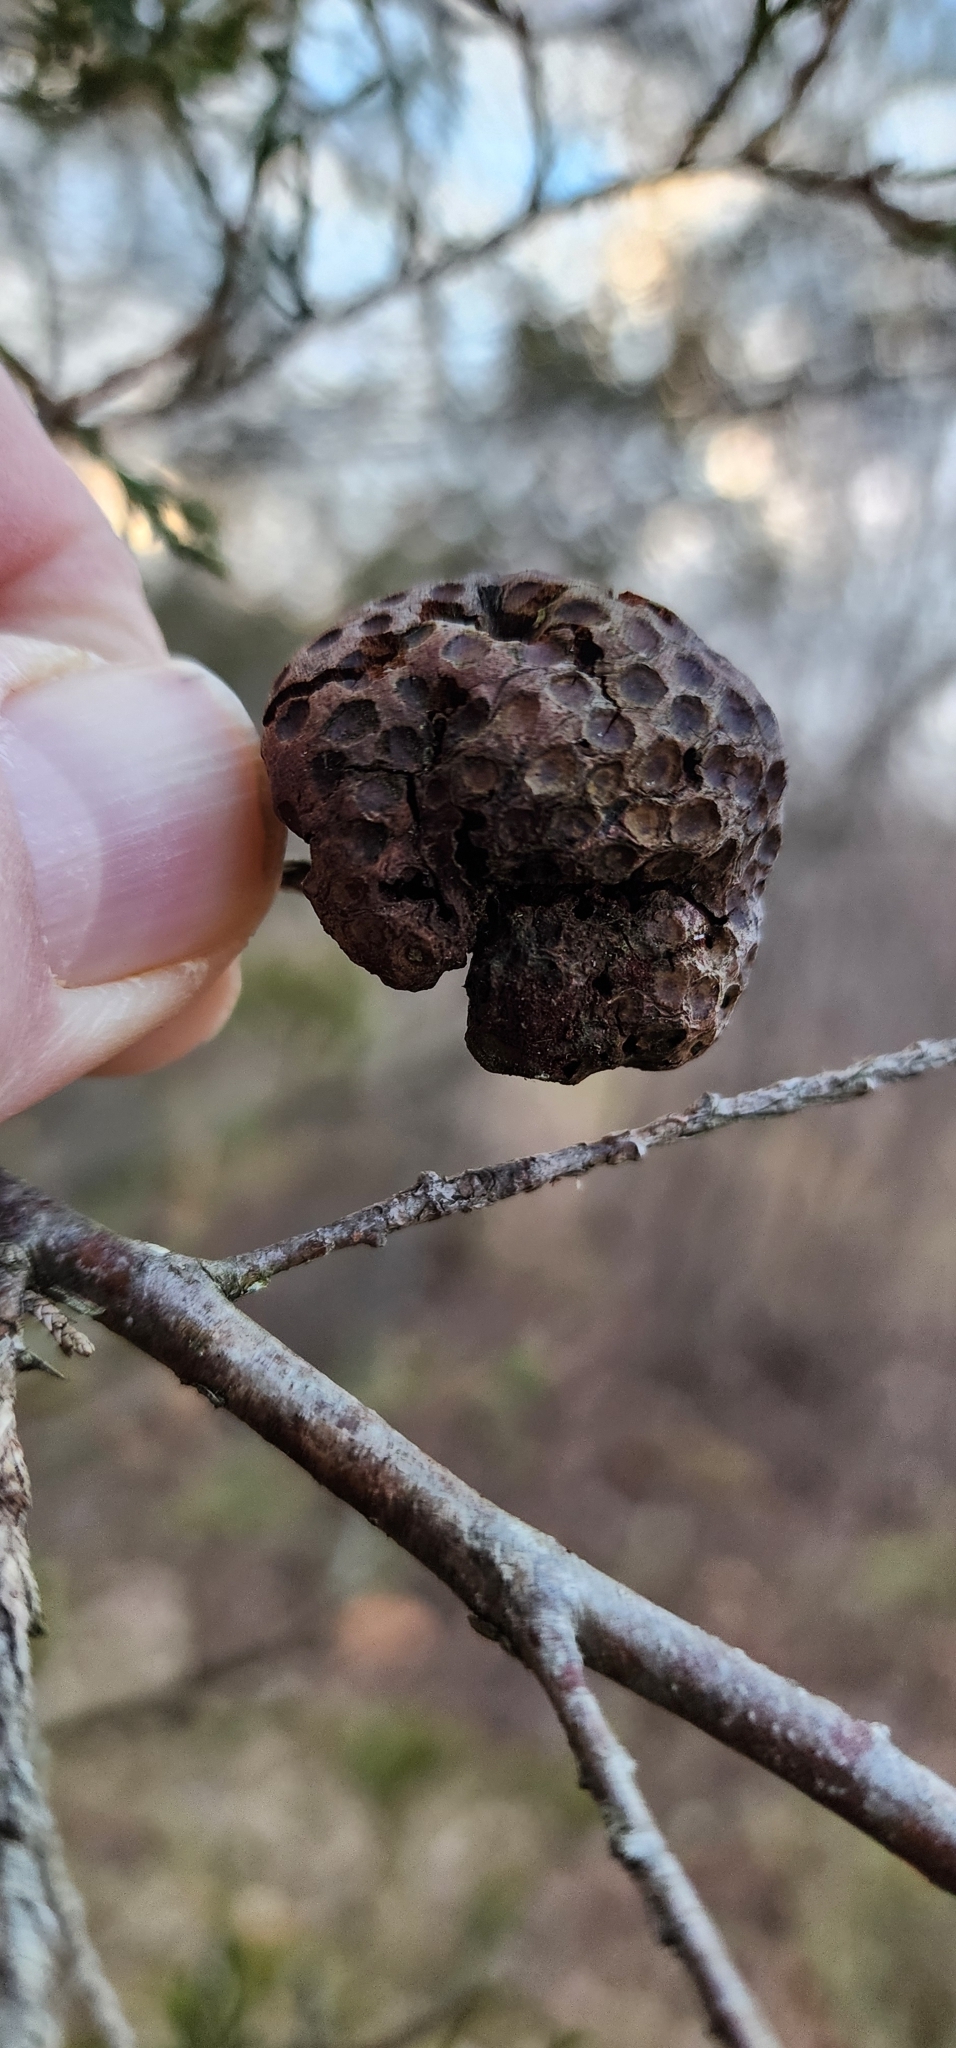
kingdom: Fungi
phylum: Basidiomycota
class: Pucciniomycetes
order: Pucciniales
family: Gymnosporangiaceae
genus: Gymnosporangium
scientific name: Gymnosporangium juniperi-virginianae
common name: Juniper-apple rust
